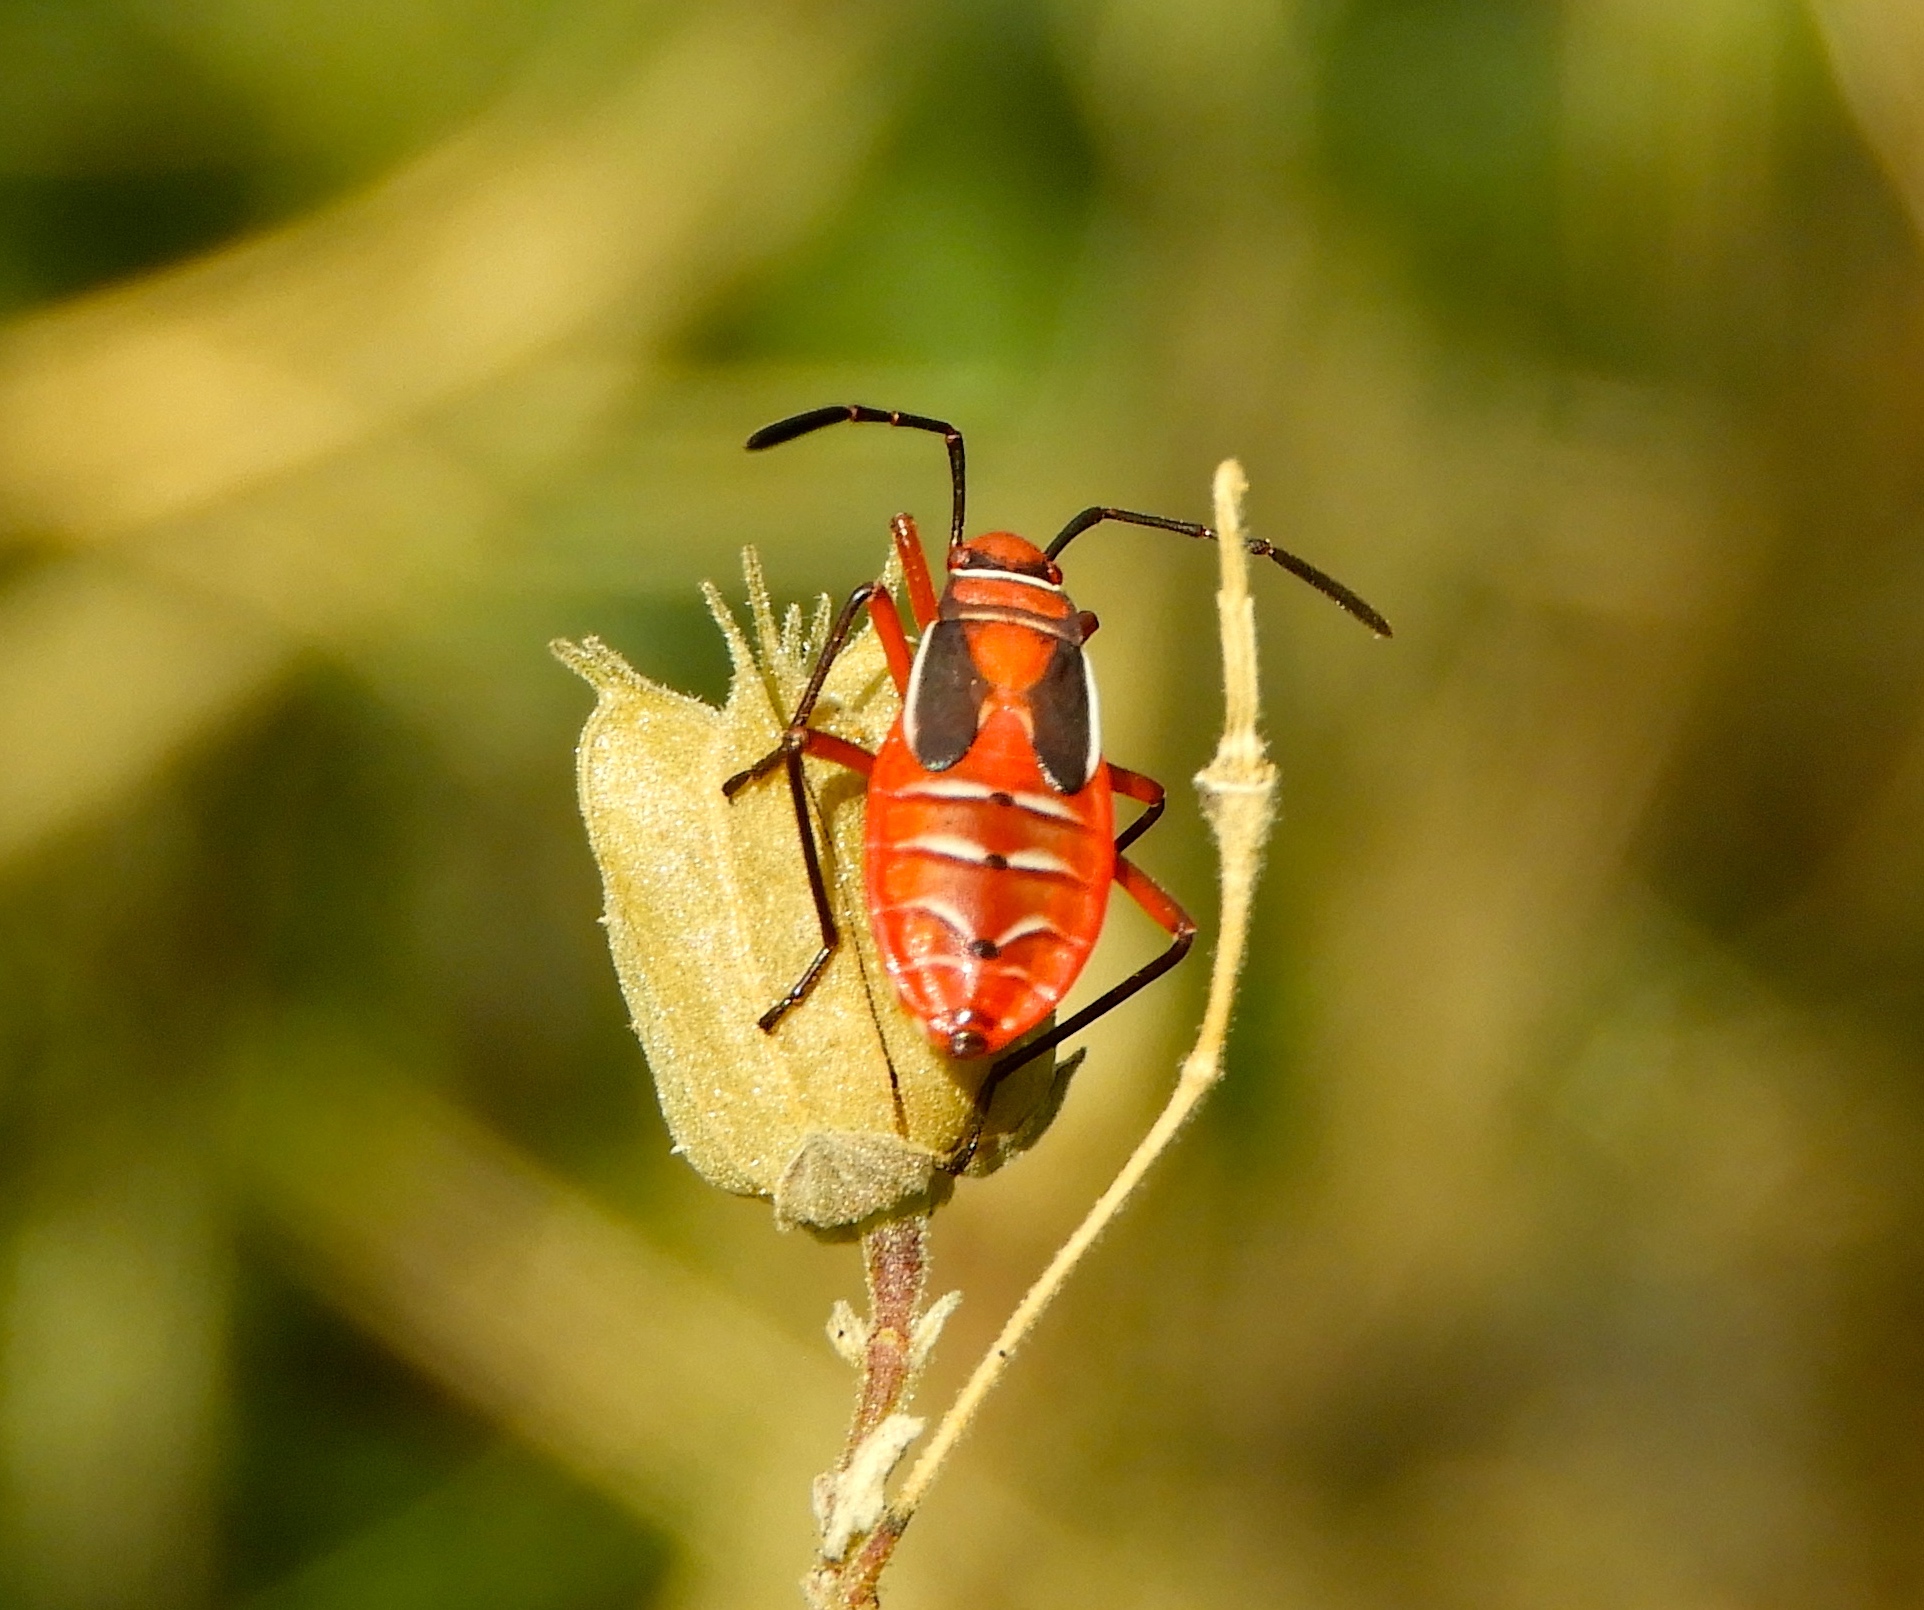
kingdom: Animalia
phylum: Arthropoda
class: Insecta
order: Hemiptera
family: Pyrrhocoridae
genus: Dysdercus
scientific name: Dysdercus
